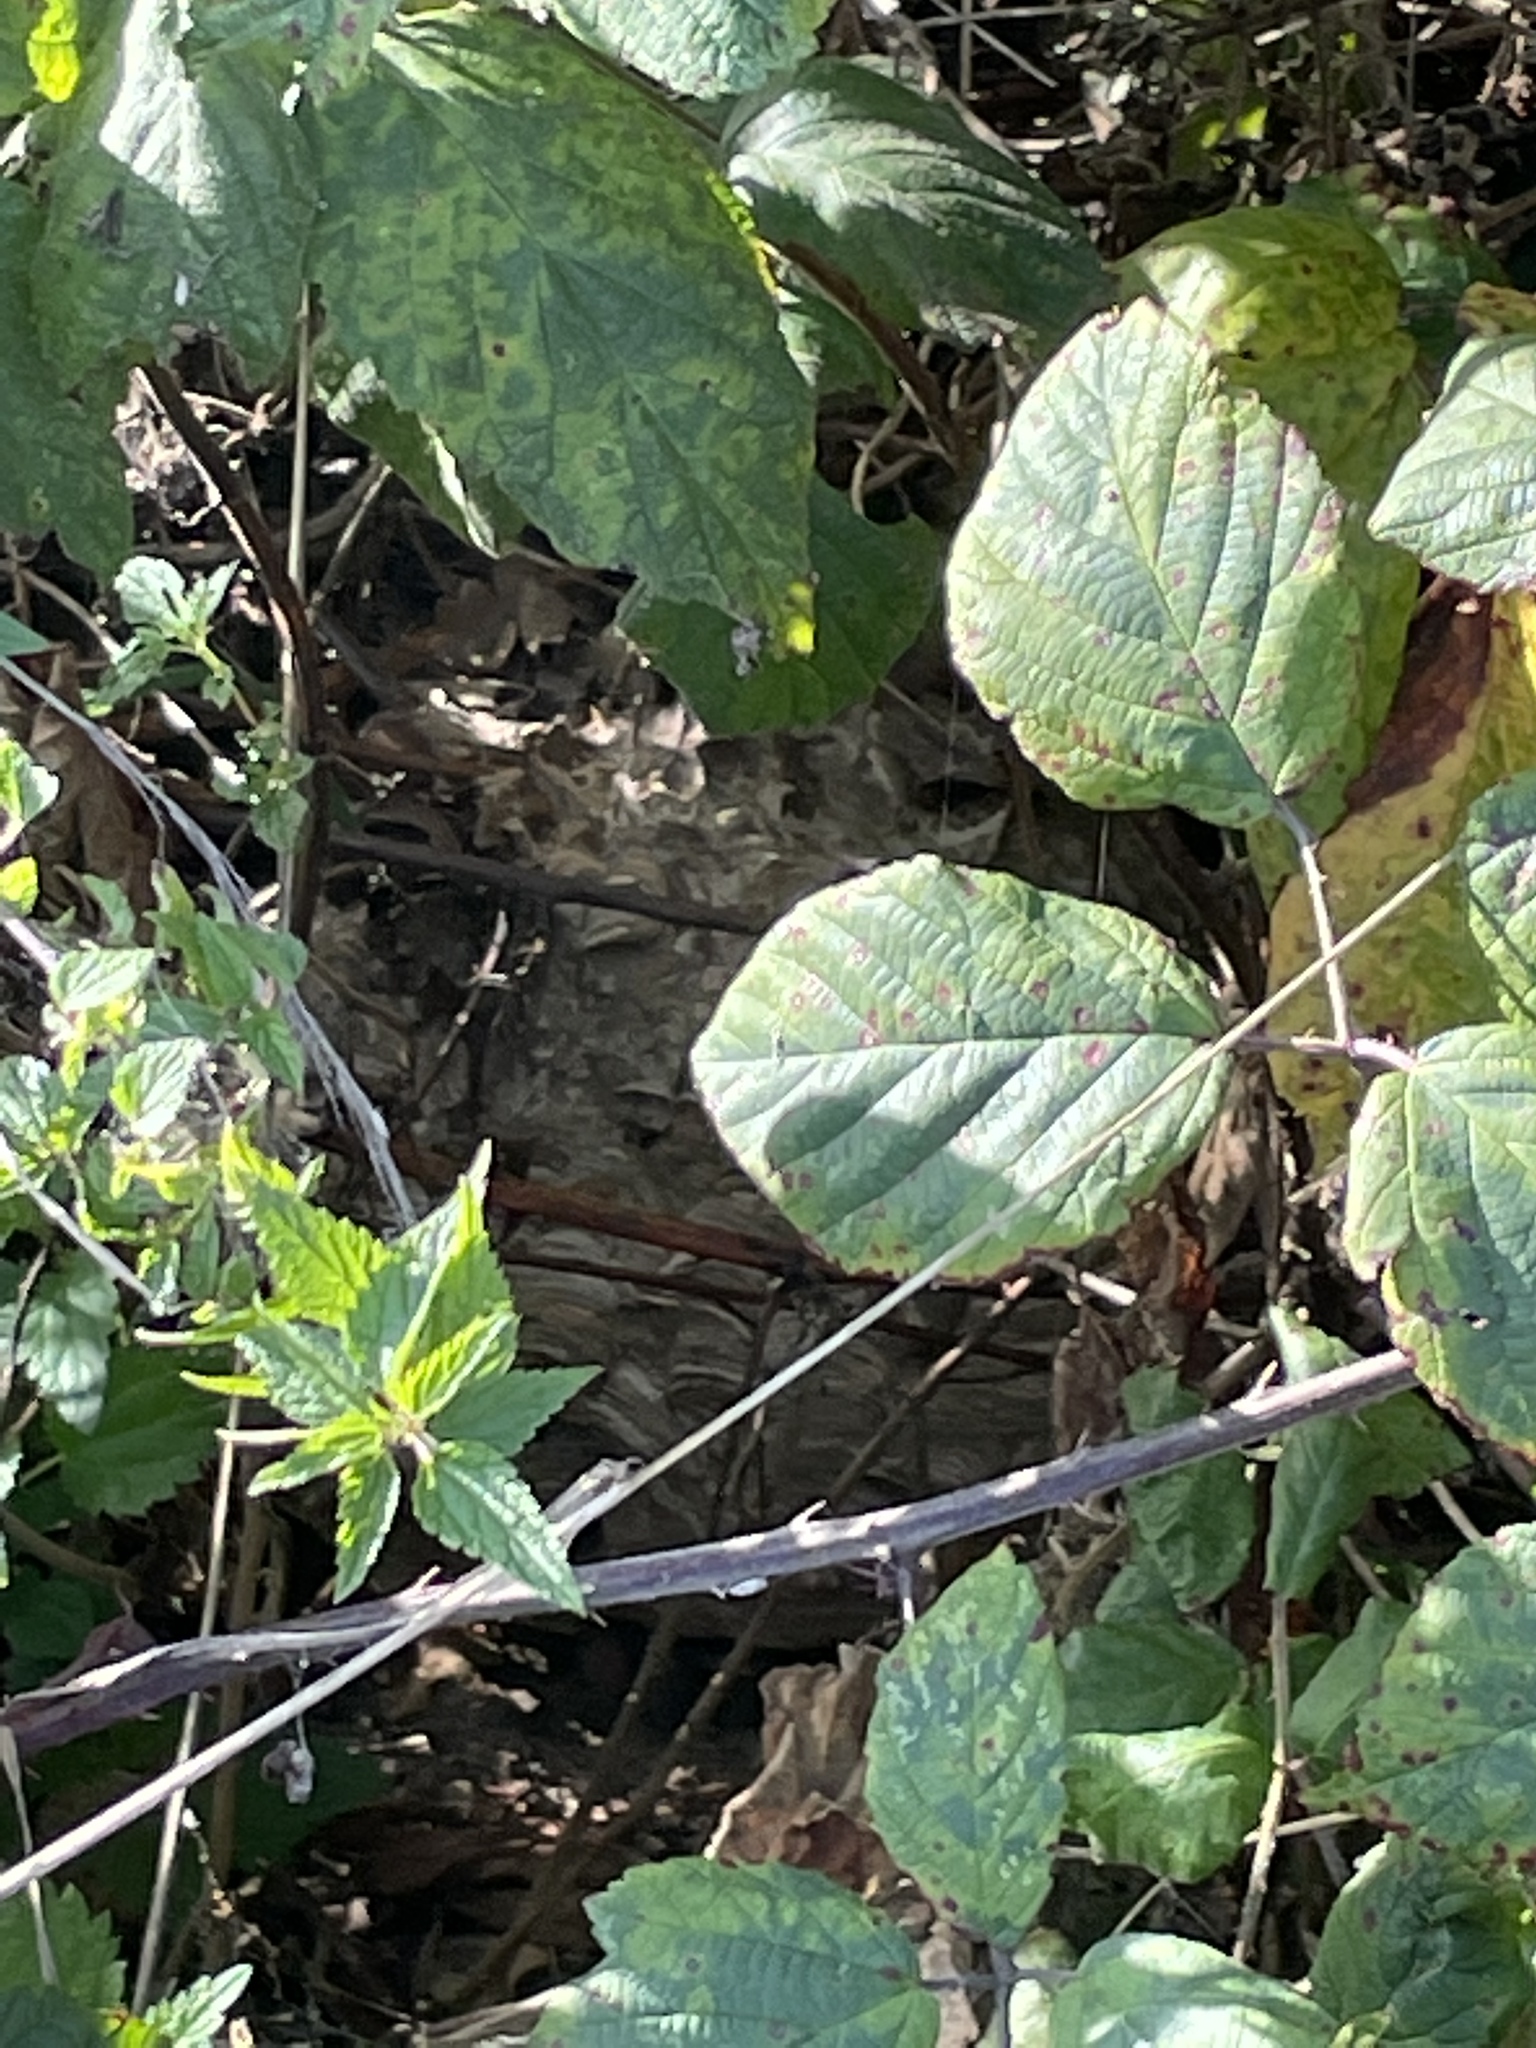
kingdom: Animalia
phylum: Arthropoda
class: Insecta
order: Hymenoptera
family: Vespidae
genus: Vespa
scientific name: Vespa velutina
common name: Asian hornet
